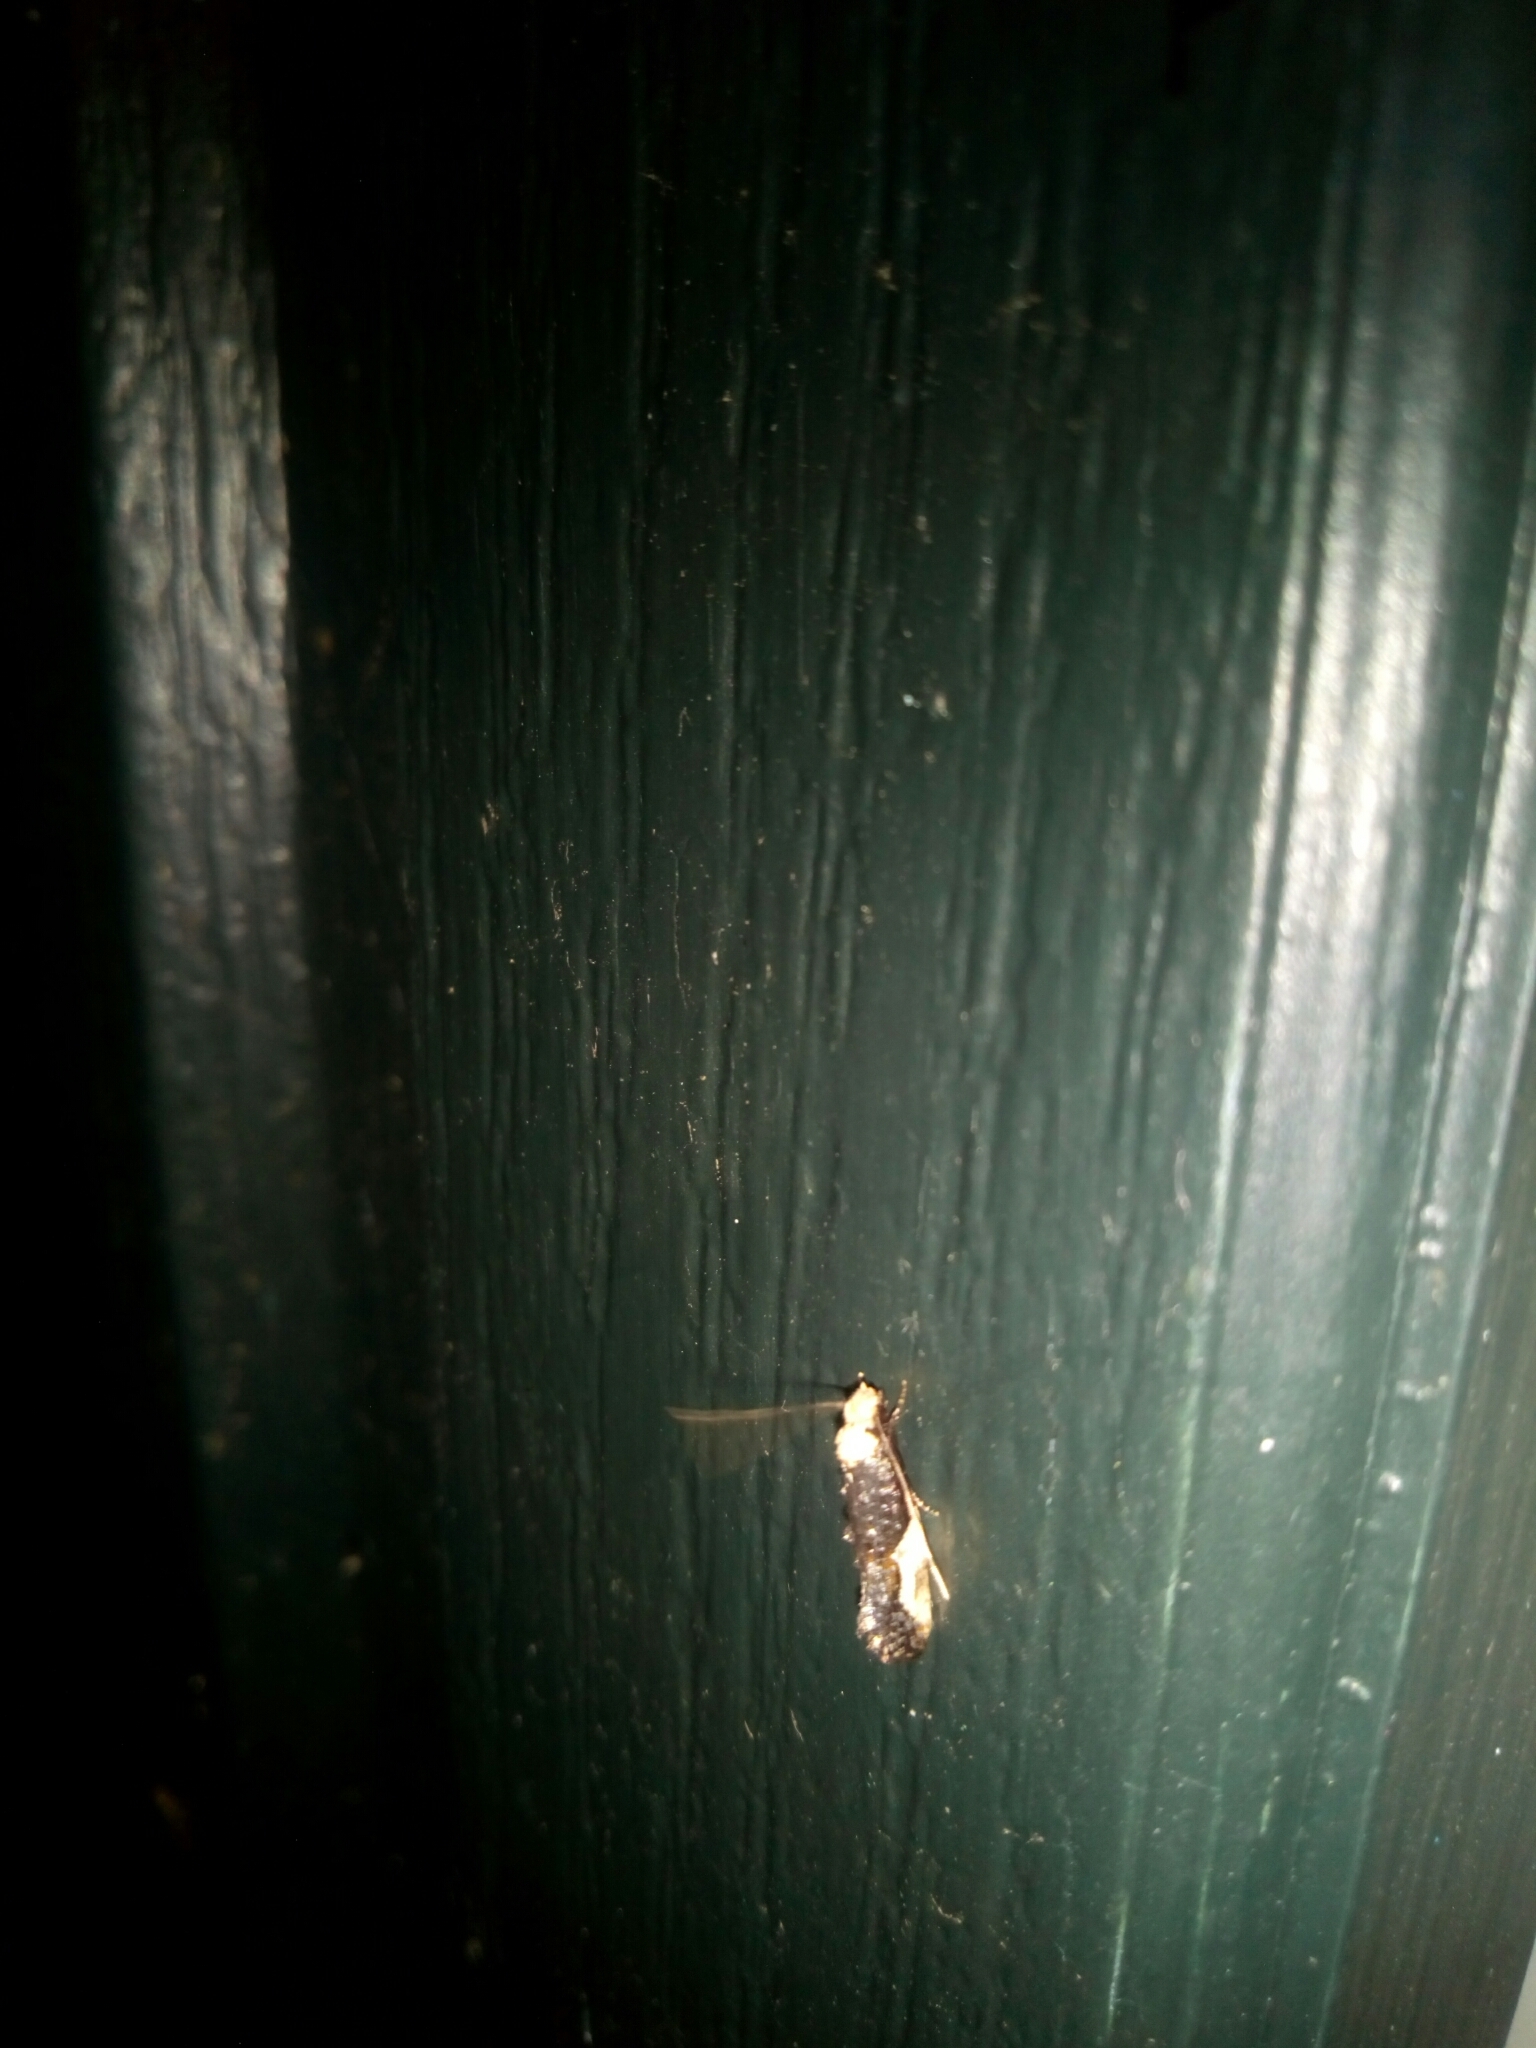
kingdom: Animalia
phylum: Arthropoda
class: Insecta
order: Lepidoptera
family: Tineidae
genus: Monopis
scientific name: Monopis longella
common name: Pavlovski's monopis moth
